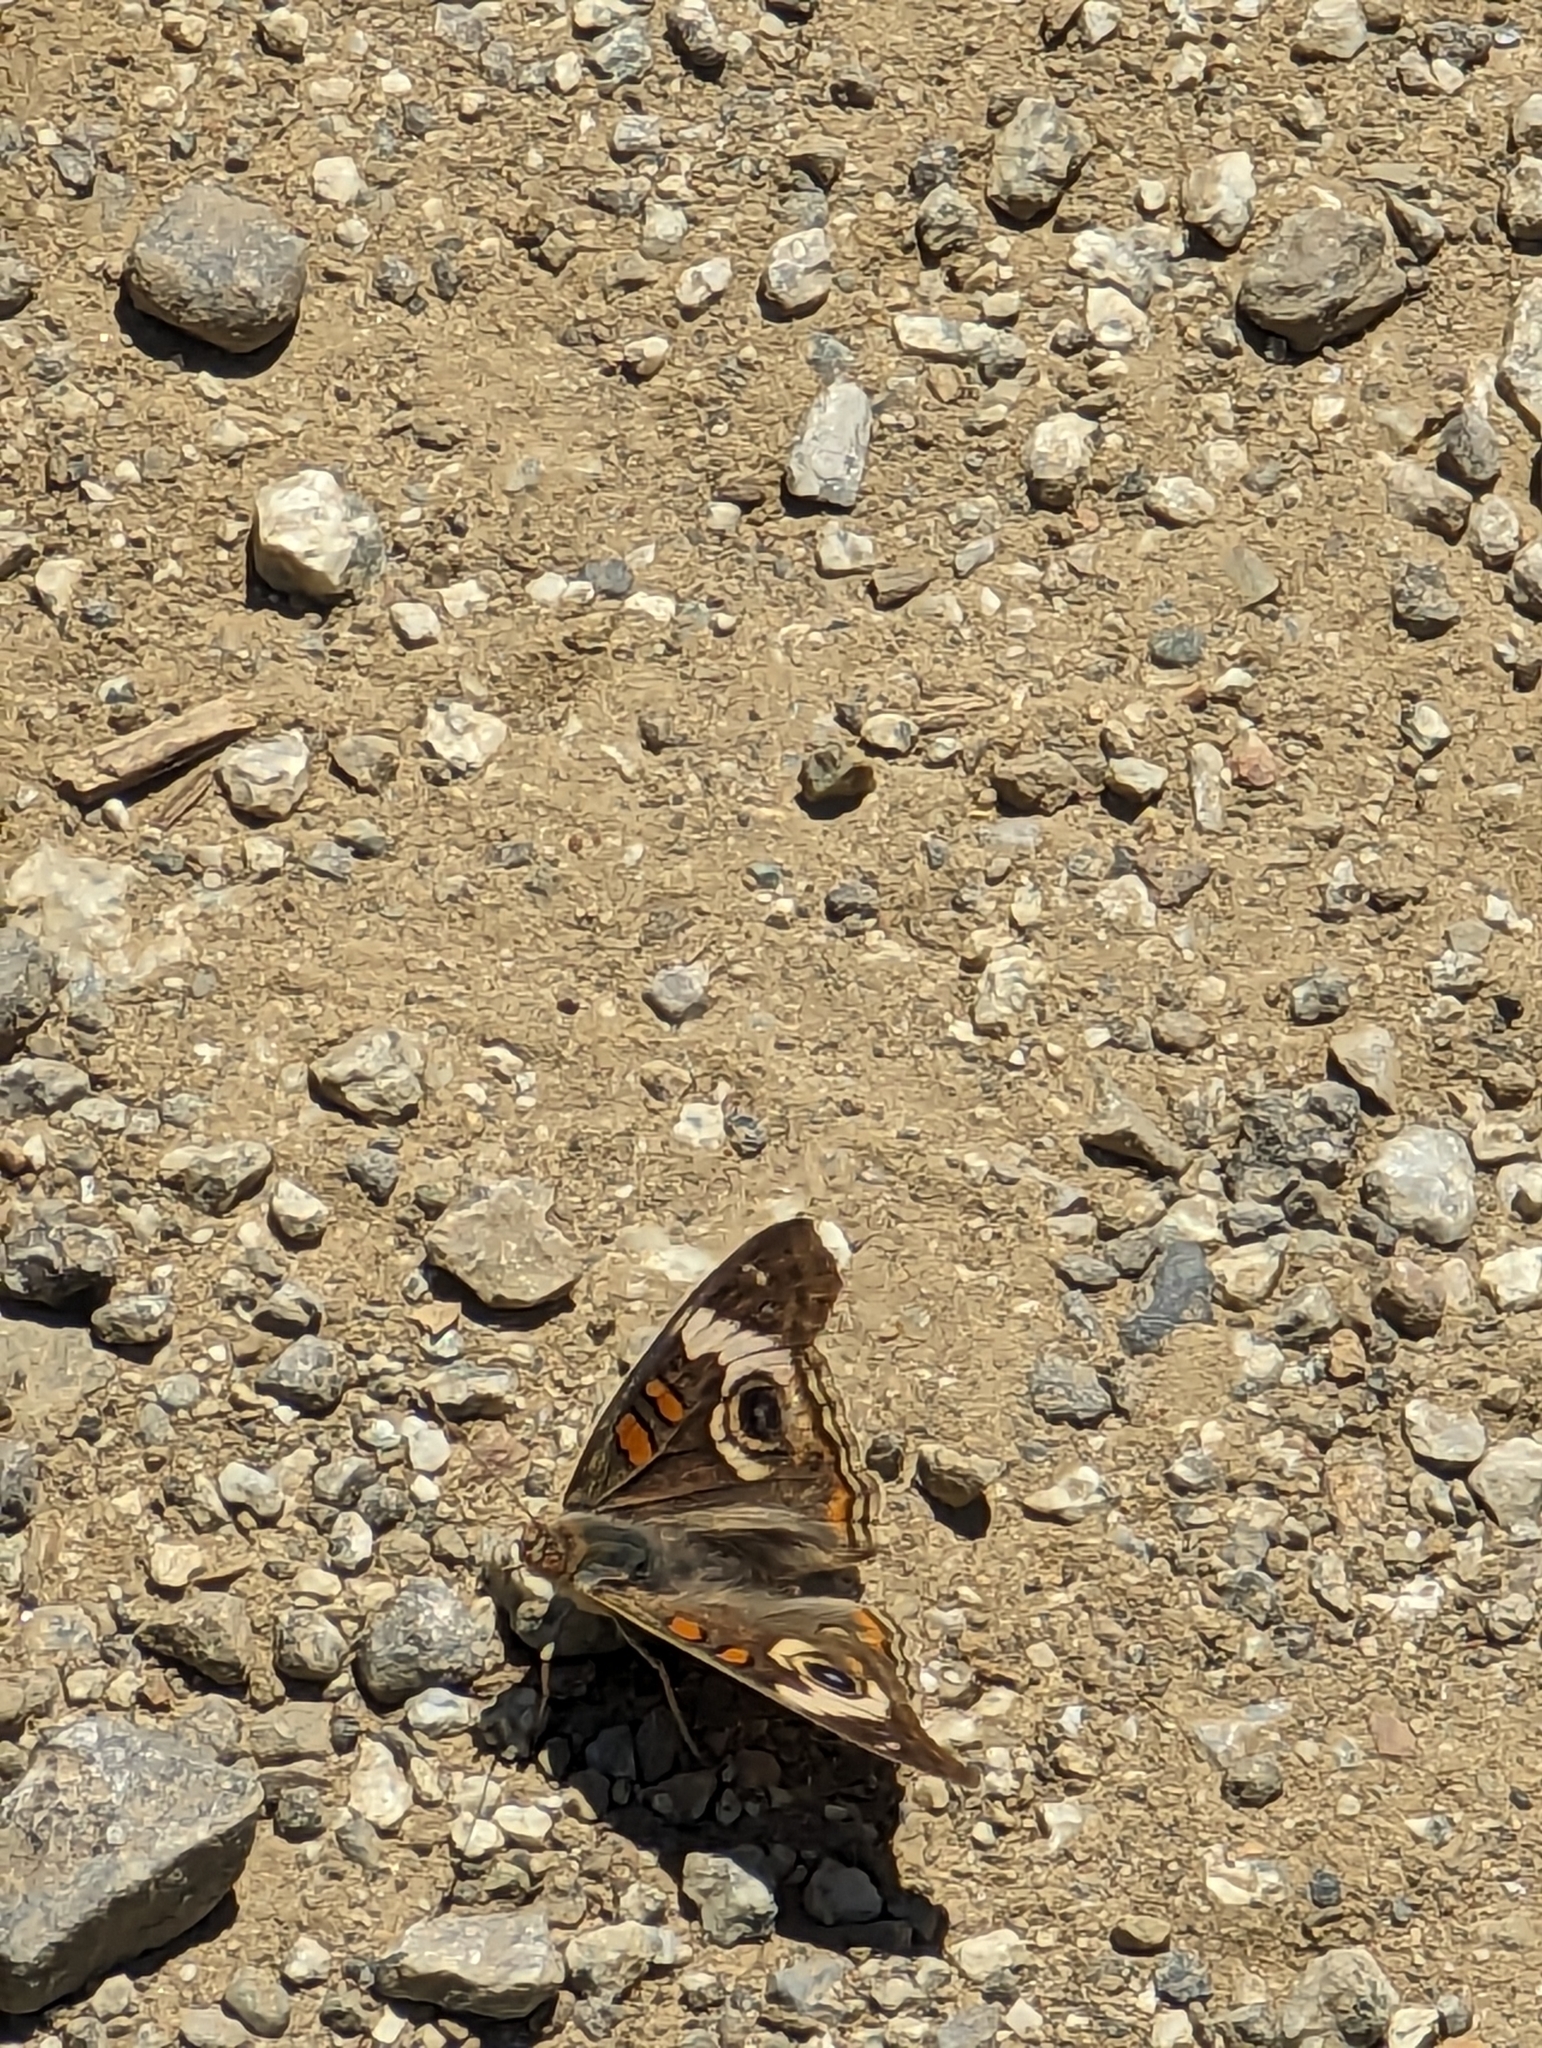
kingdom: Animalia
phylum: Arthropoda
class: Insecta
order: Lepidoptera
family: Nymphalidae
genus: Junonia
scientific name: Junonia grisea
